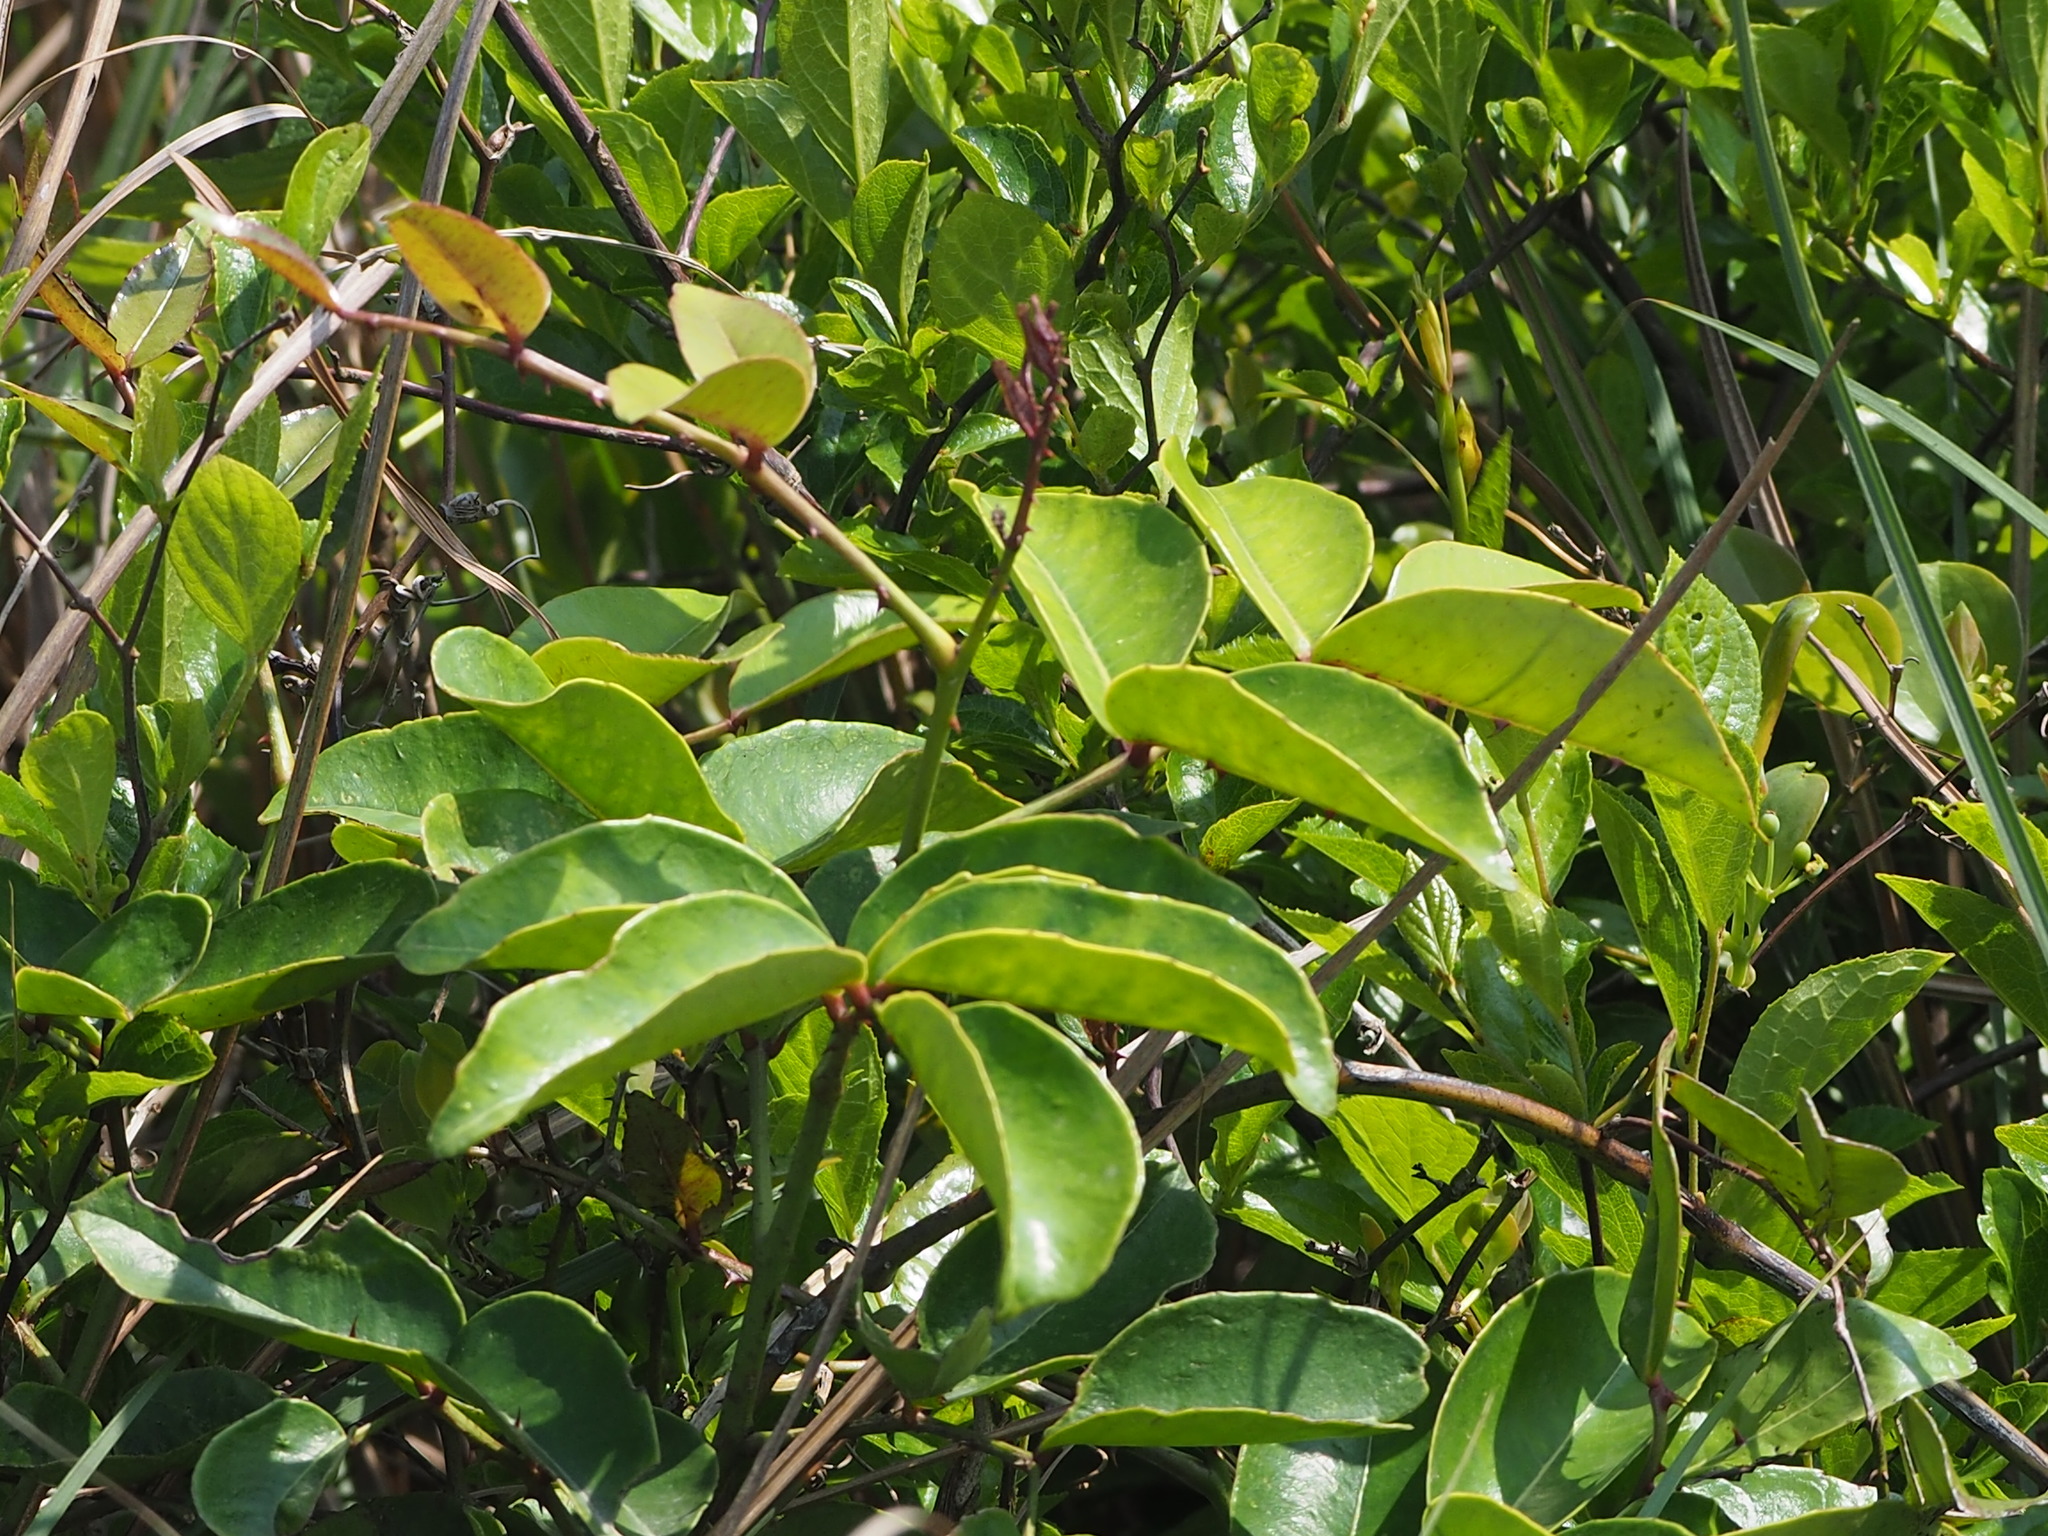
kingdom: Plantae
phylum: Tracheophyta
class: Magnoliopsida
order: Sapindales
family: Rutaceae
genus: Zanthoxylum
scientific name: Zanthoxylum nitidum
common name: Shiny-leaf prickly-ash
